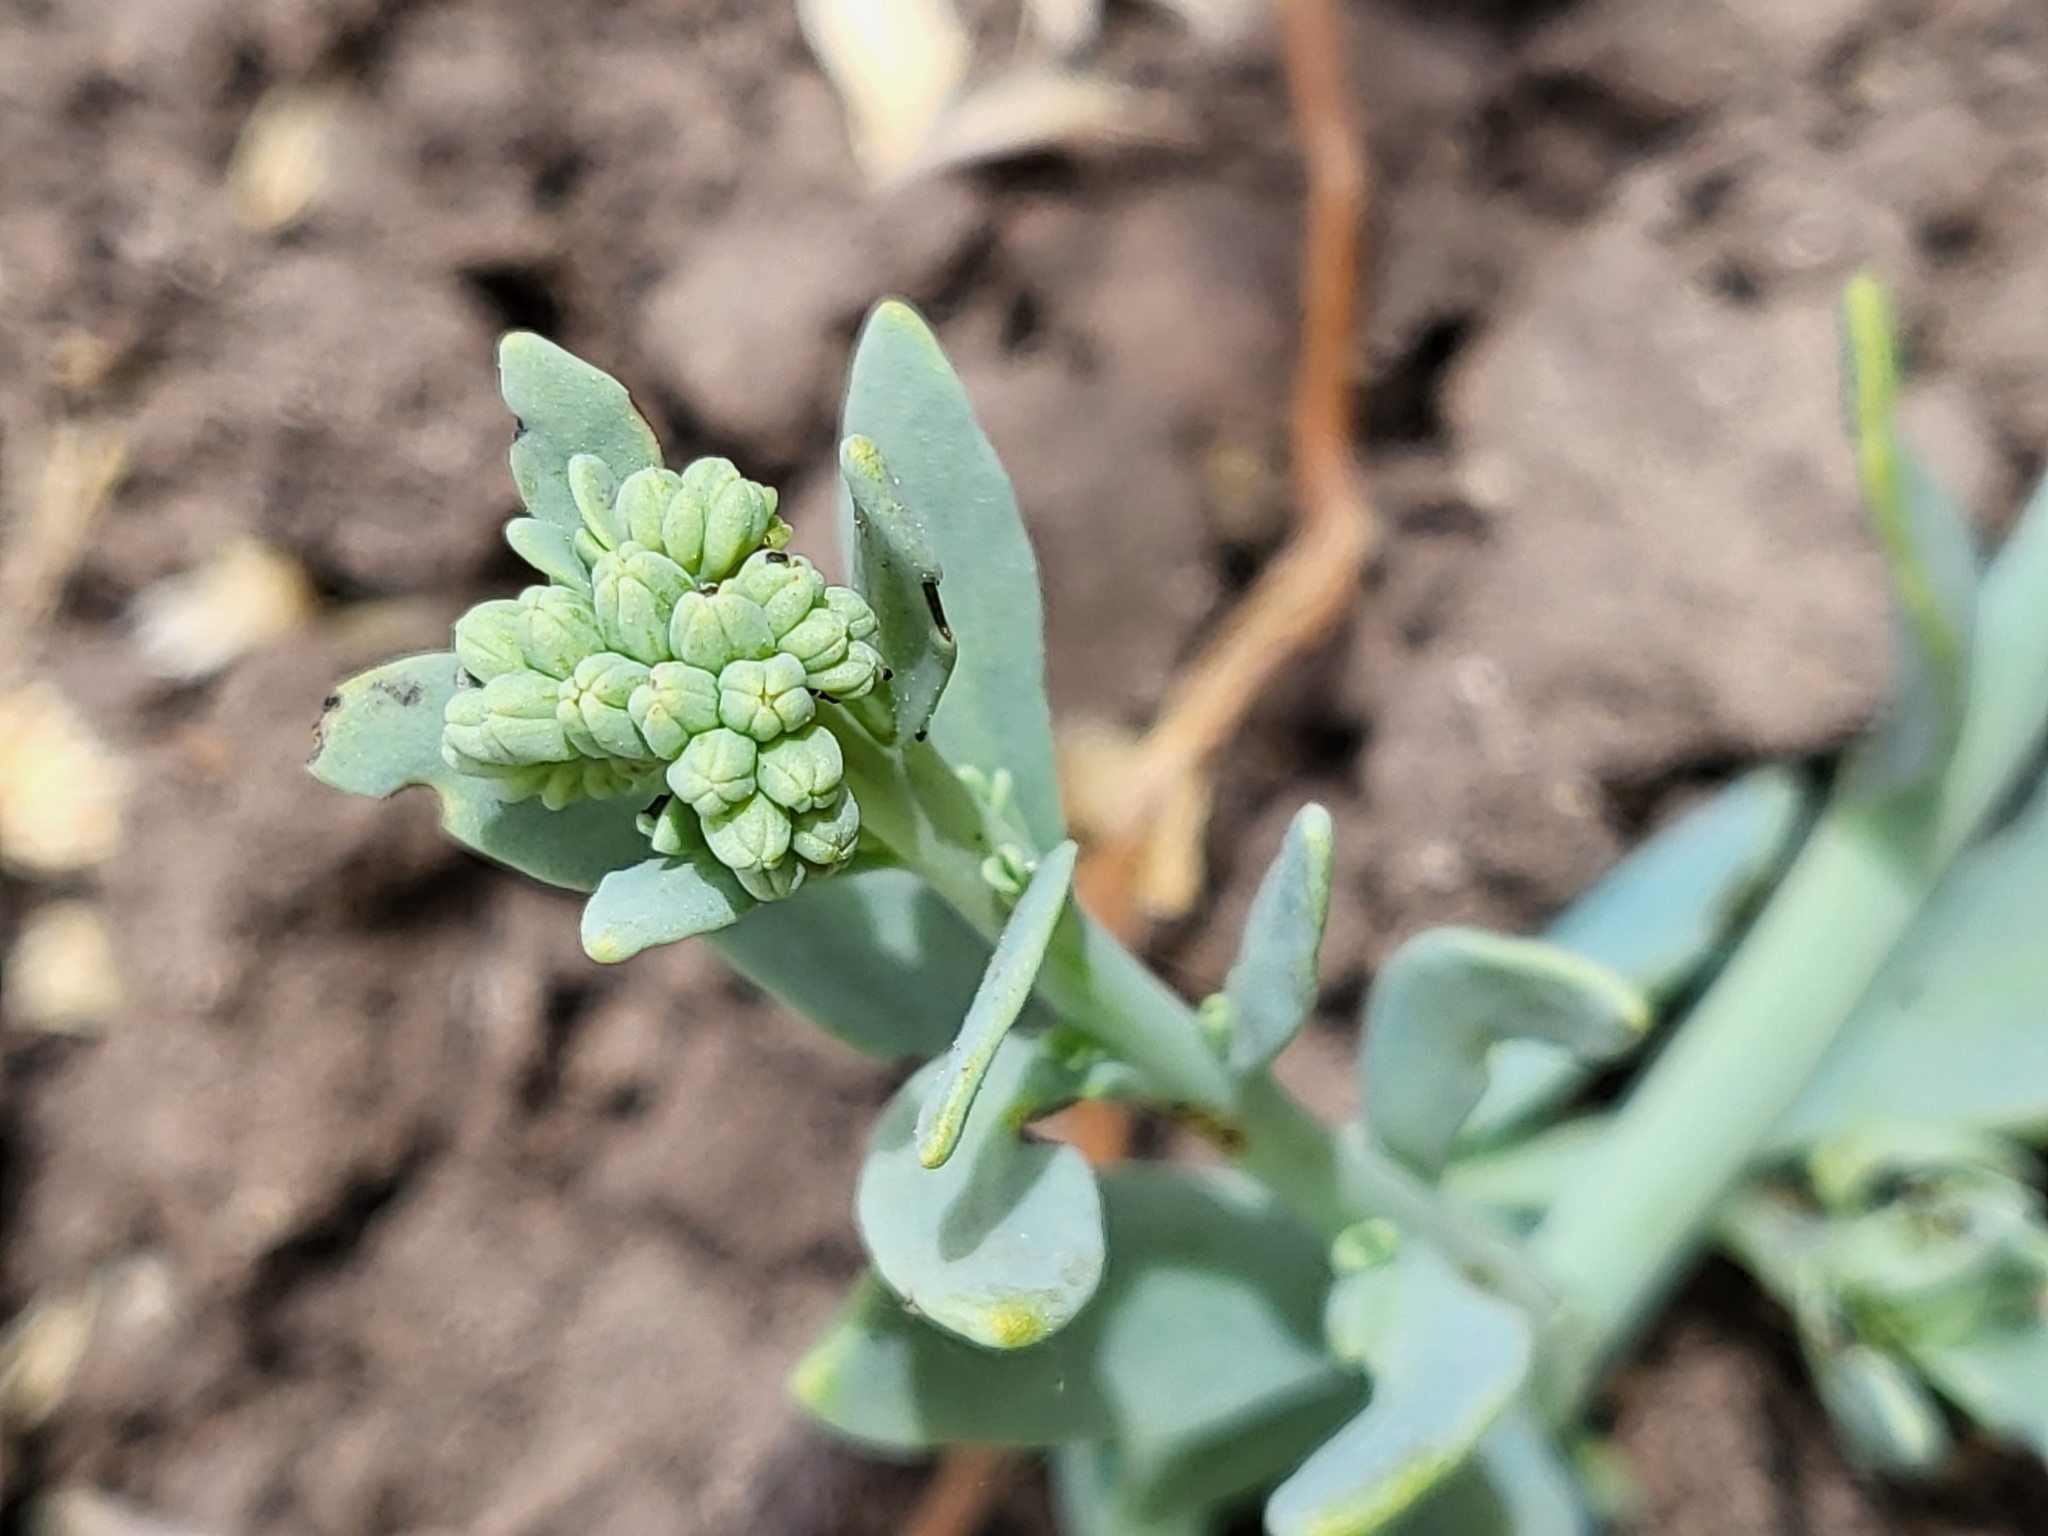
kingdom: Plantae
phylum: Tracheophyta
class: Magnoliopsida
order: Boraginales
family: Heliotropiaceae
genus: Heliotropium
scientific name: Heliotropium curassavicum
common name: Seaside heliotrope
